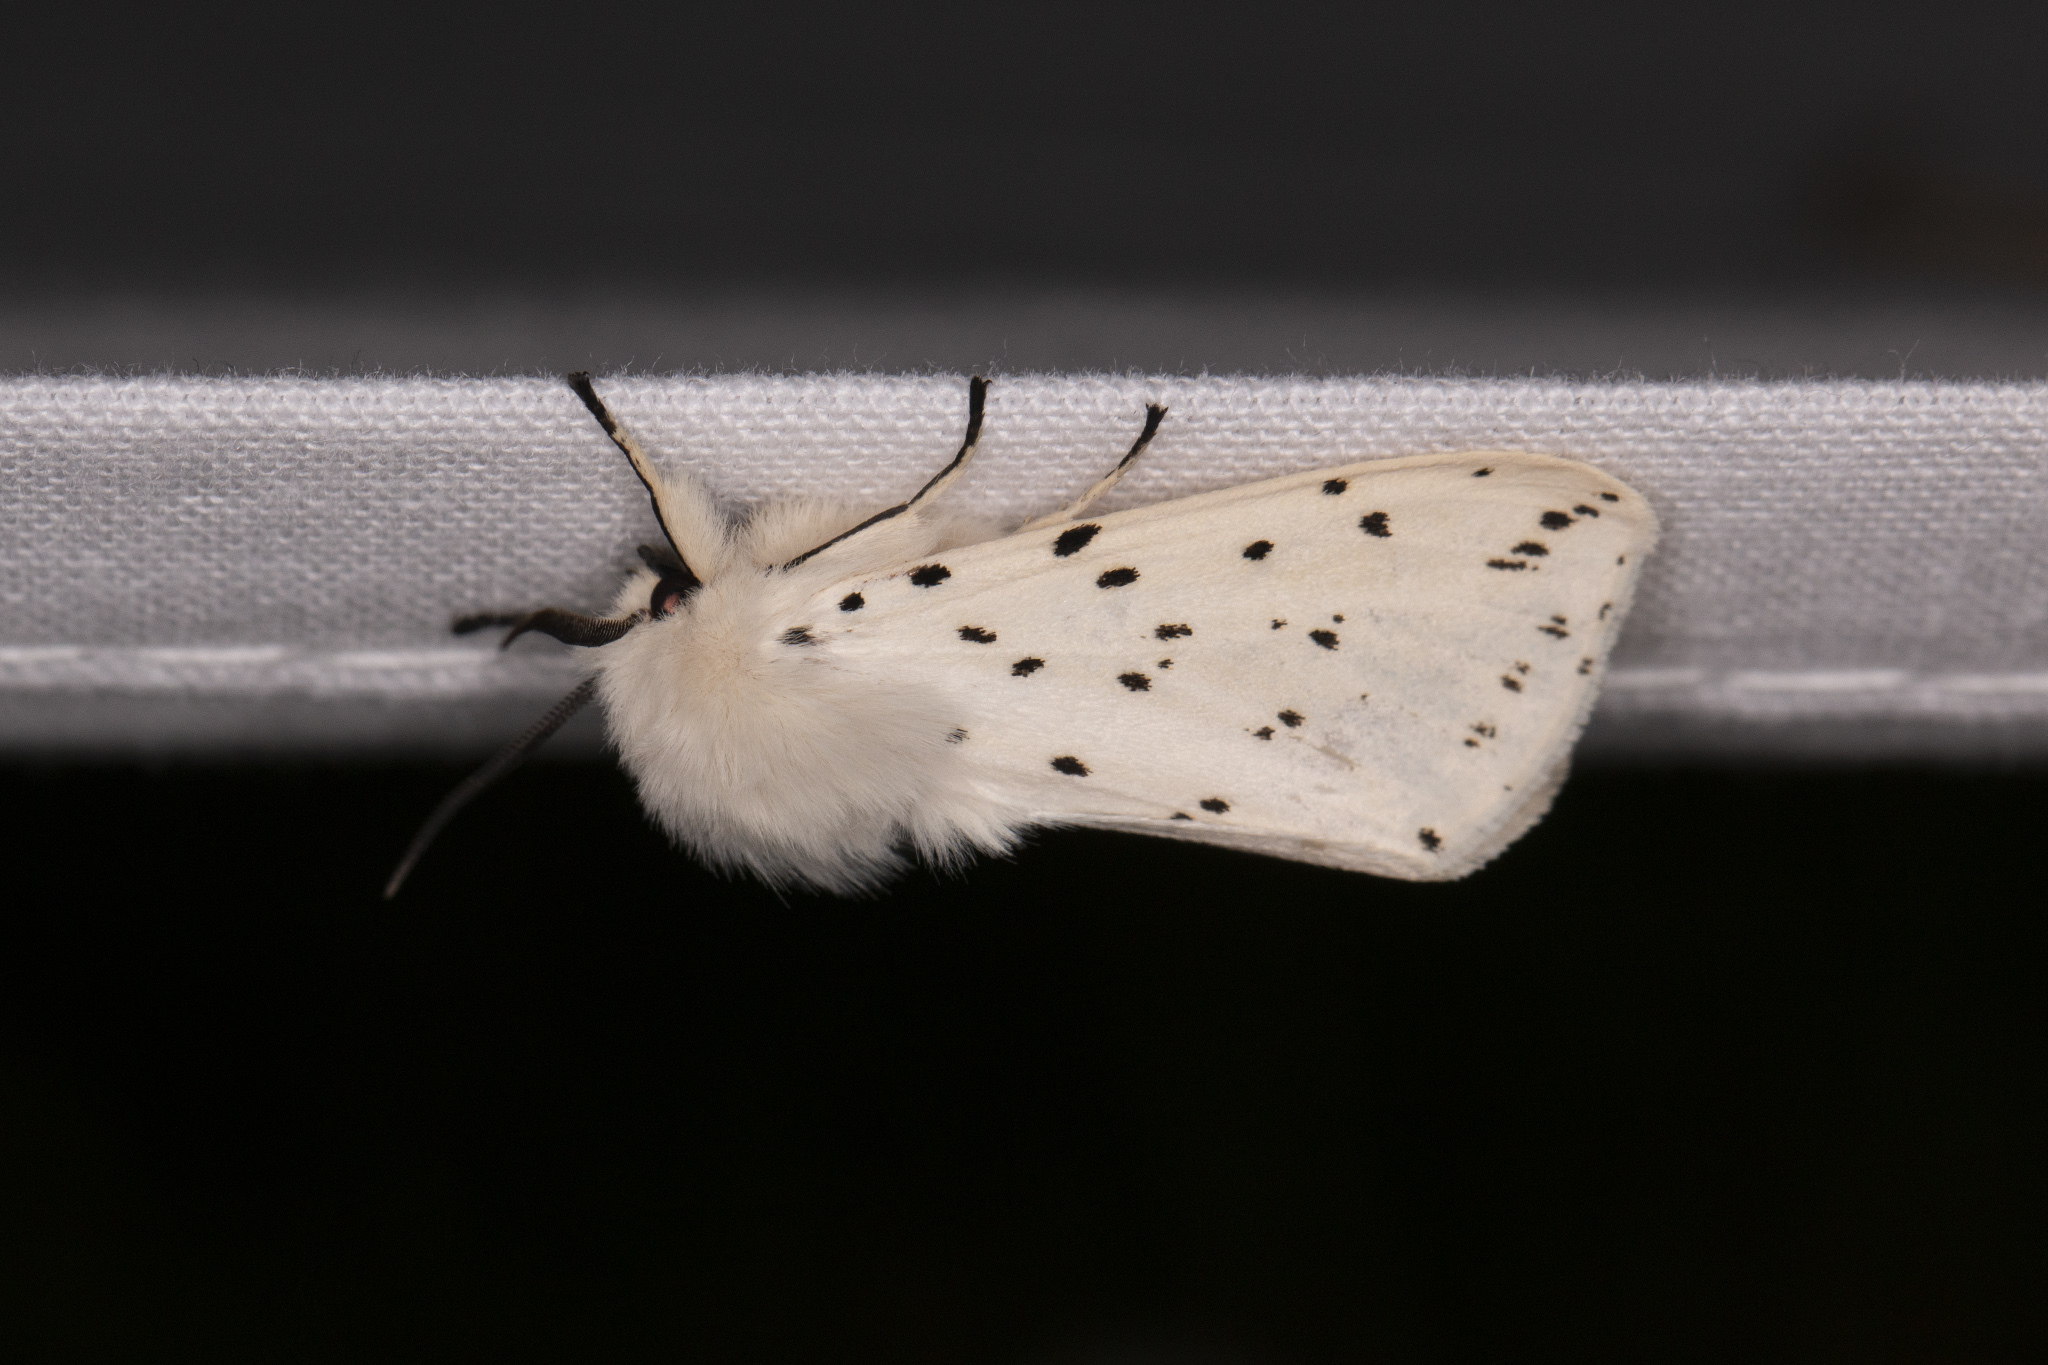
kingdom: Animalia
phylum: Arthropoda
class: Insecta
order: Lepidoptera
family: Erebidae
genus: Spilosoma
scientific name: Spilosoma lubricipeda
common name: White ermine
